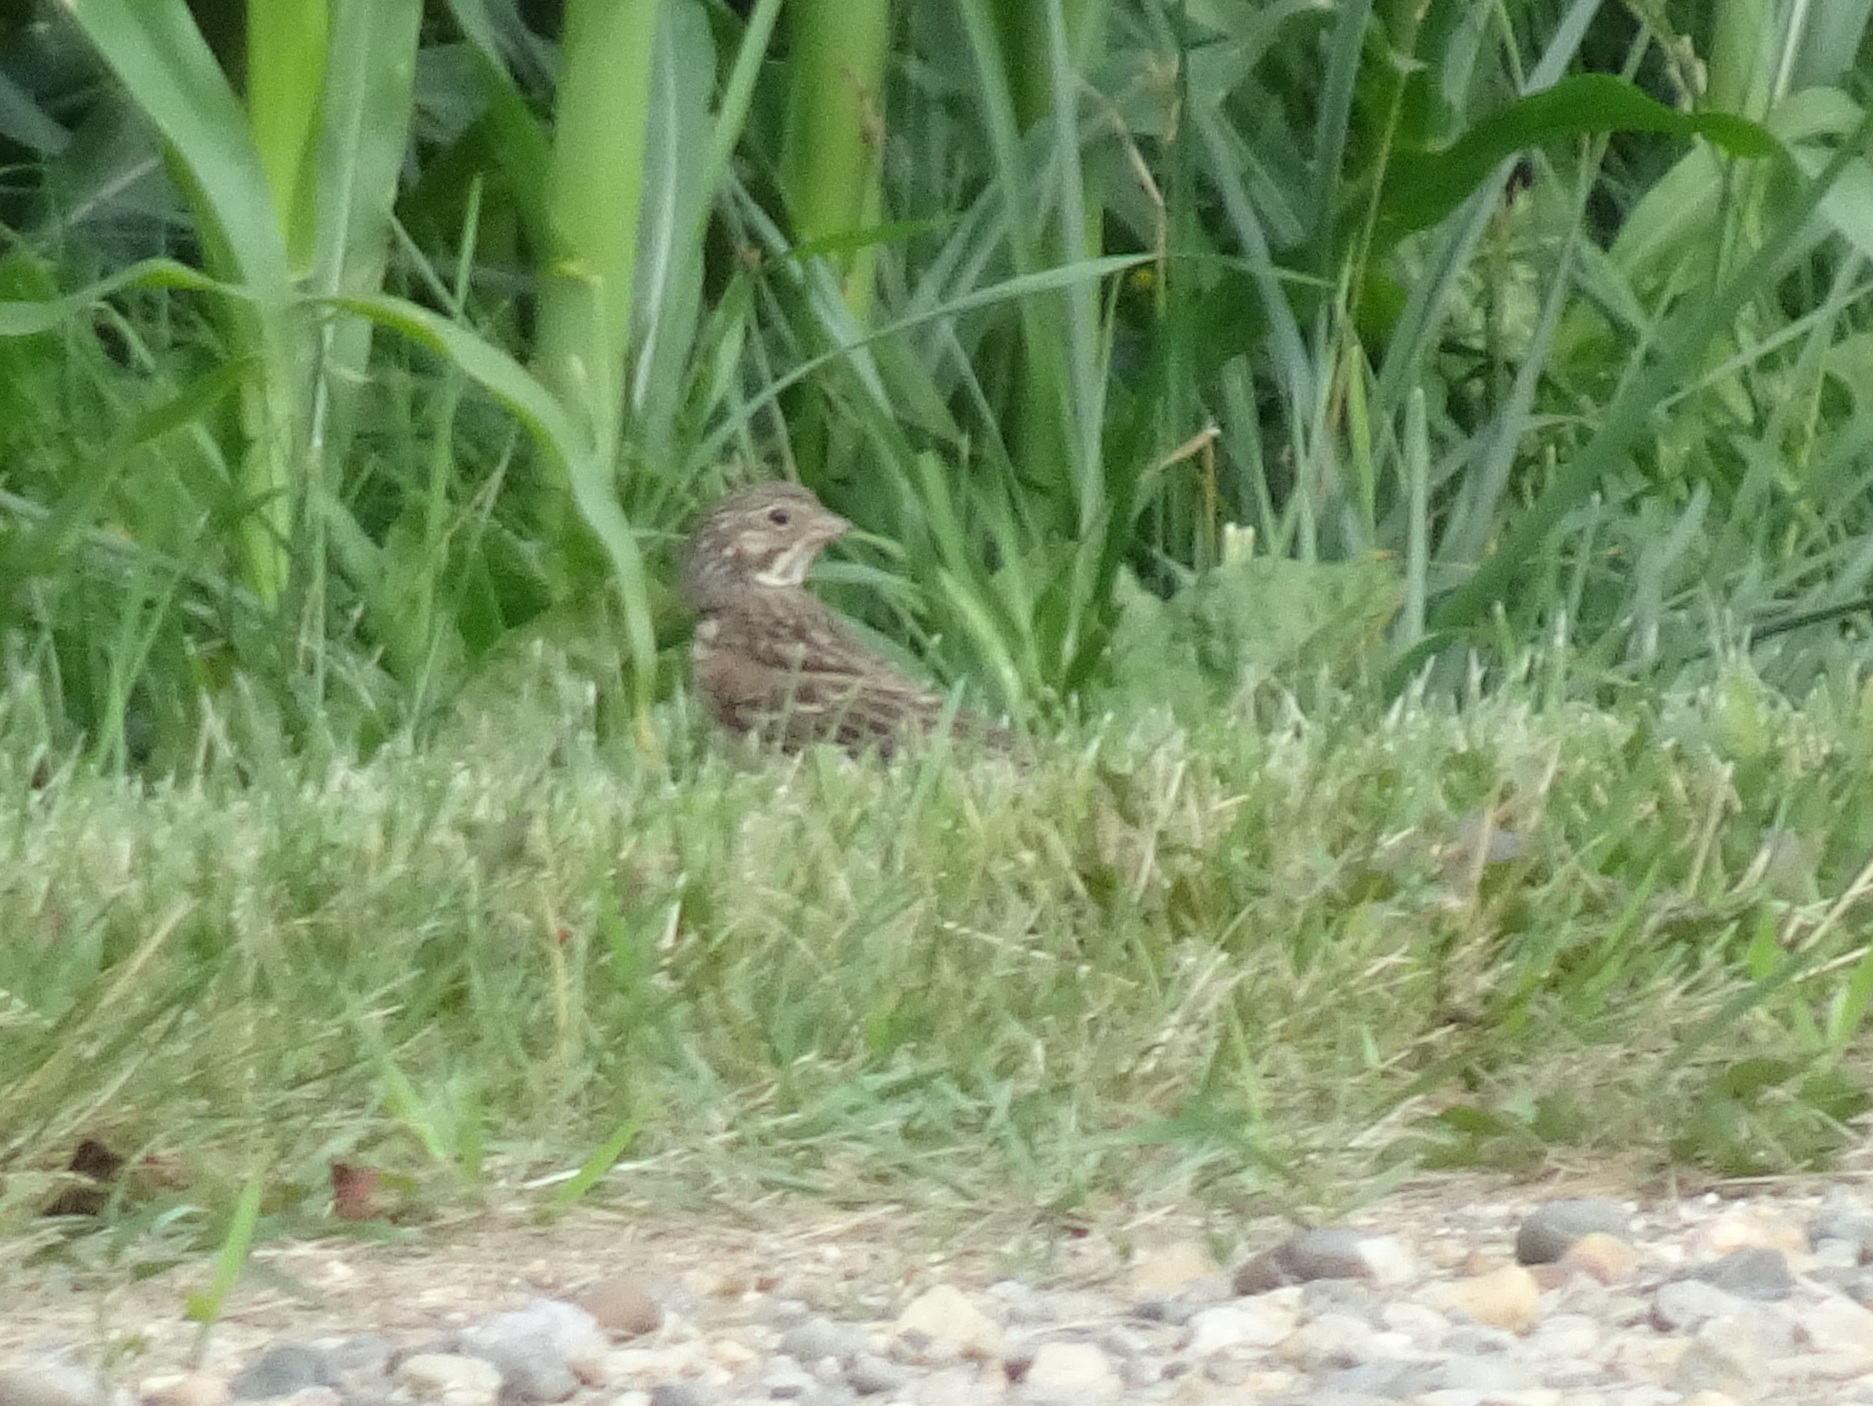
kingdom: Animalia
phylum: Chordata
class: Aves
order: Passeriformes
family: Passerellidae
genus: Pooecetes
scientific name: Pooecetes gramineus
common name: Vesper sparrow
